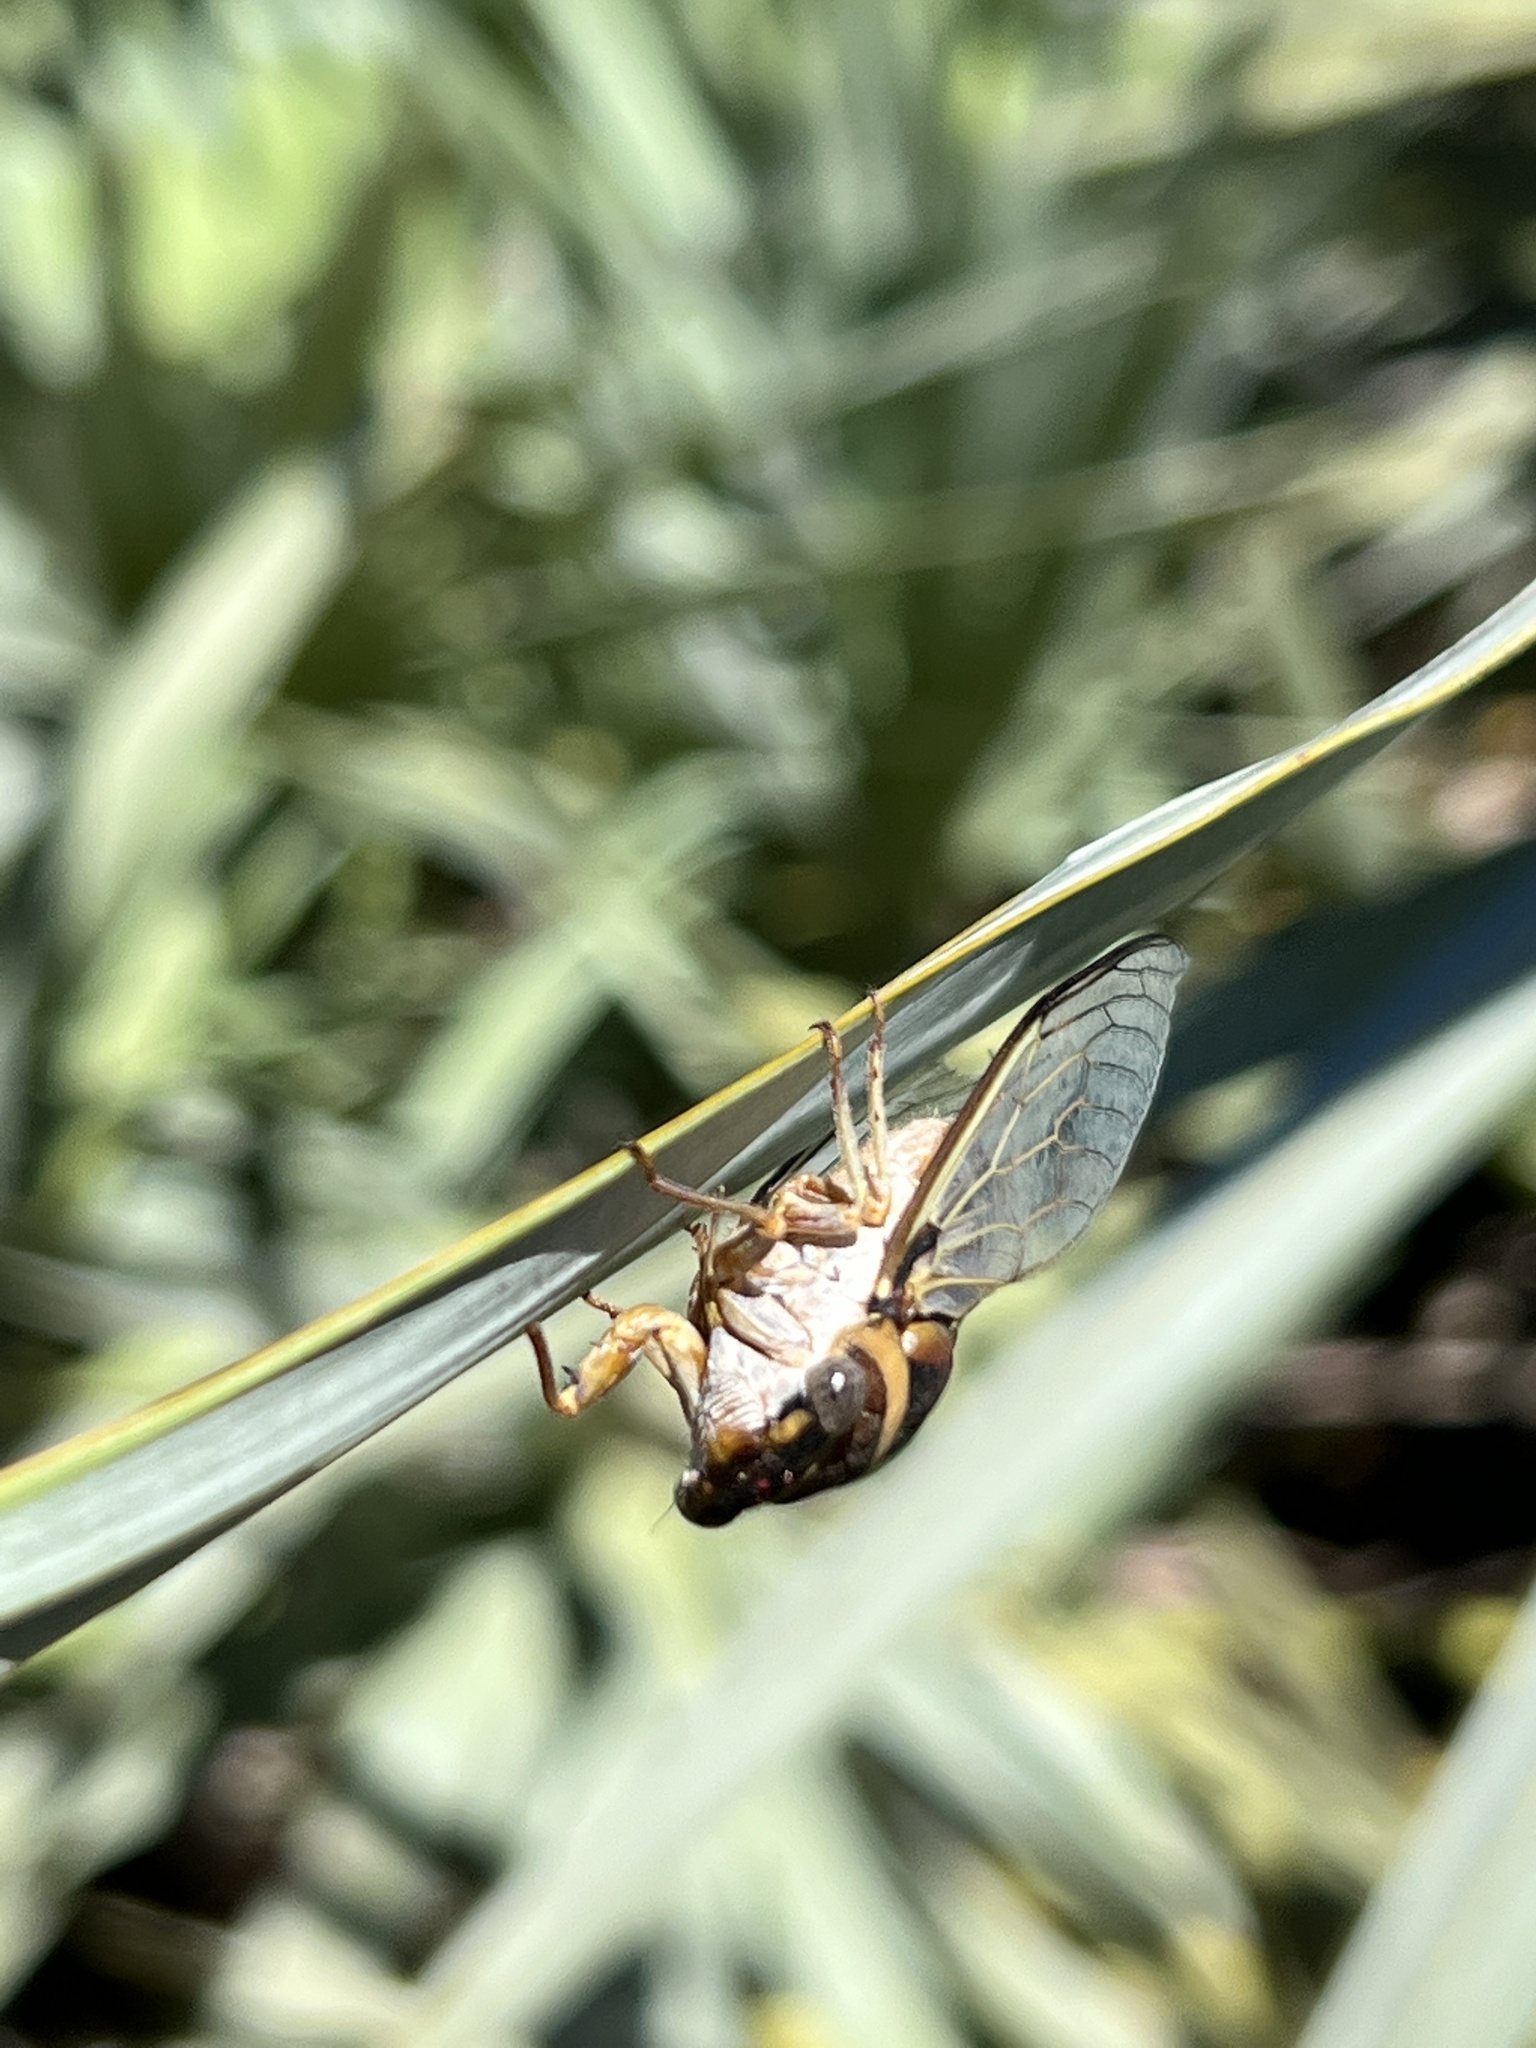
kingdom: Animalia
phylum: Arthropoda
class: Insecta
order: Hemiptera
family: Cicadidae
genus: Diceroprocta
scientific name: Diceroprocta viridifascia
